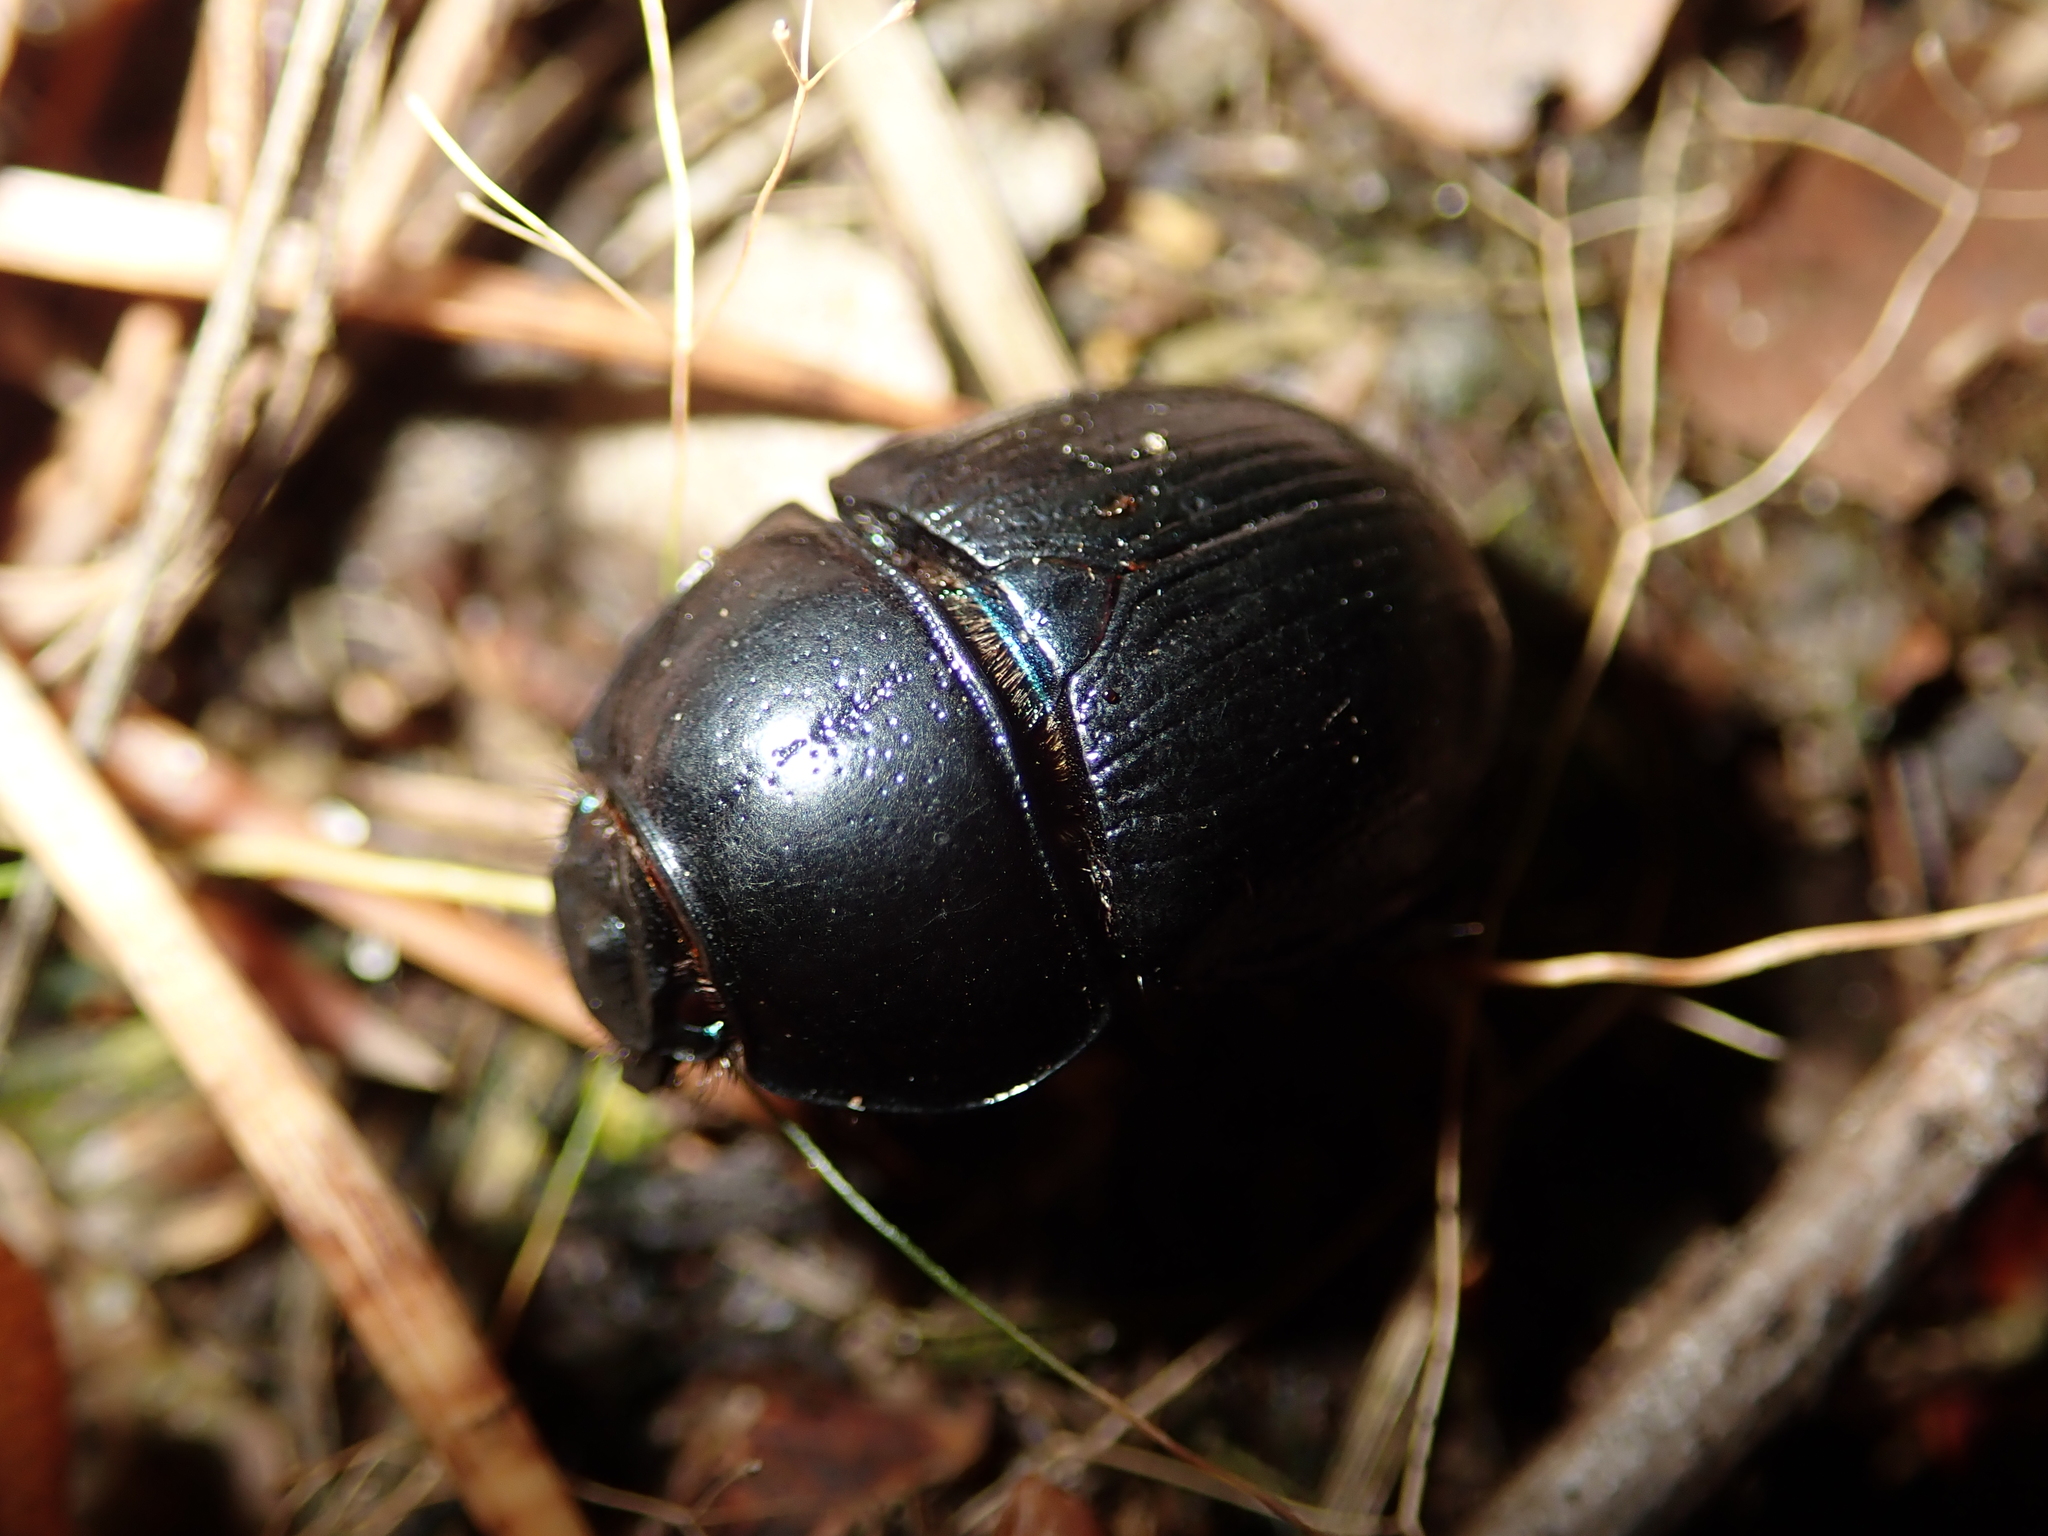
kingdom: Animalia
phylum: Arthropoda
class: Insecta
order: Coleoptera
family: Geotrupidae
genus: Anoplotrupes
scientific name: Anoplotrupes stercorosus
